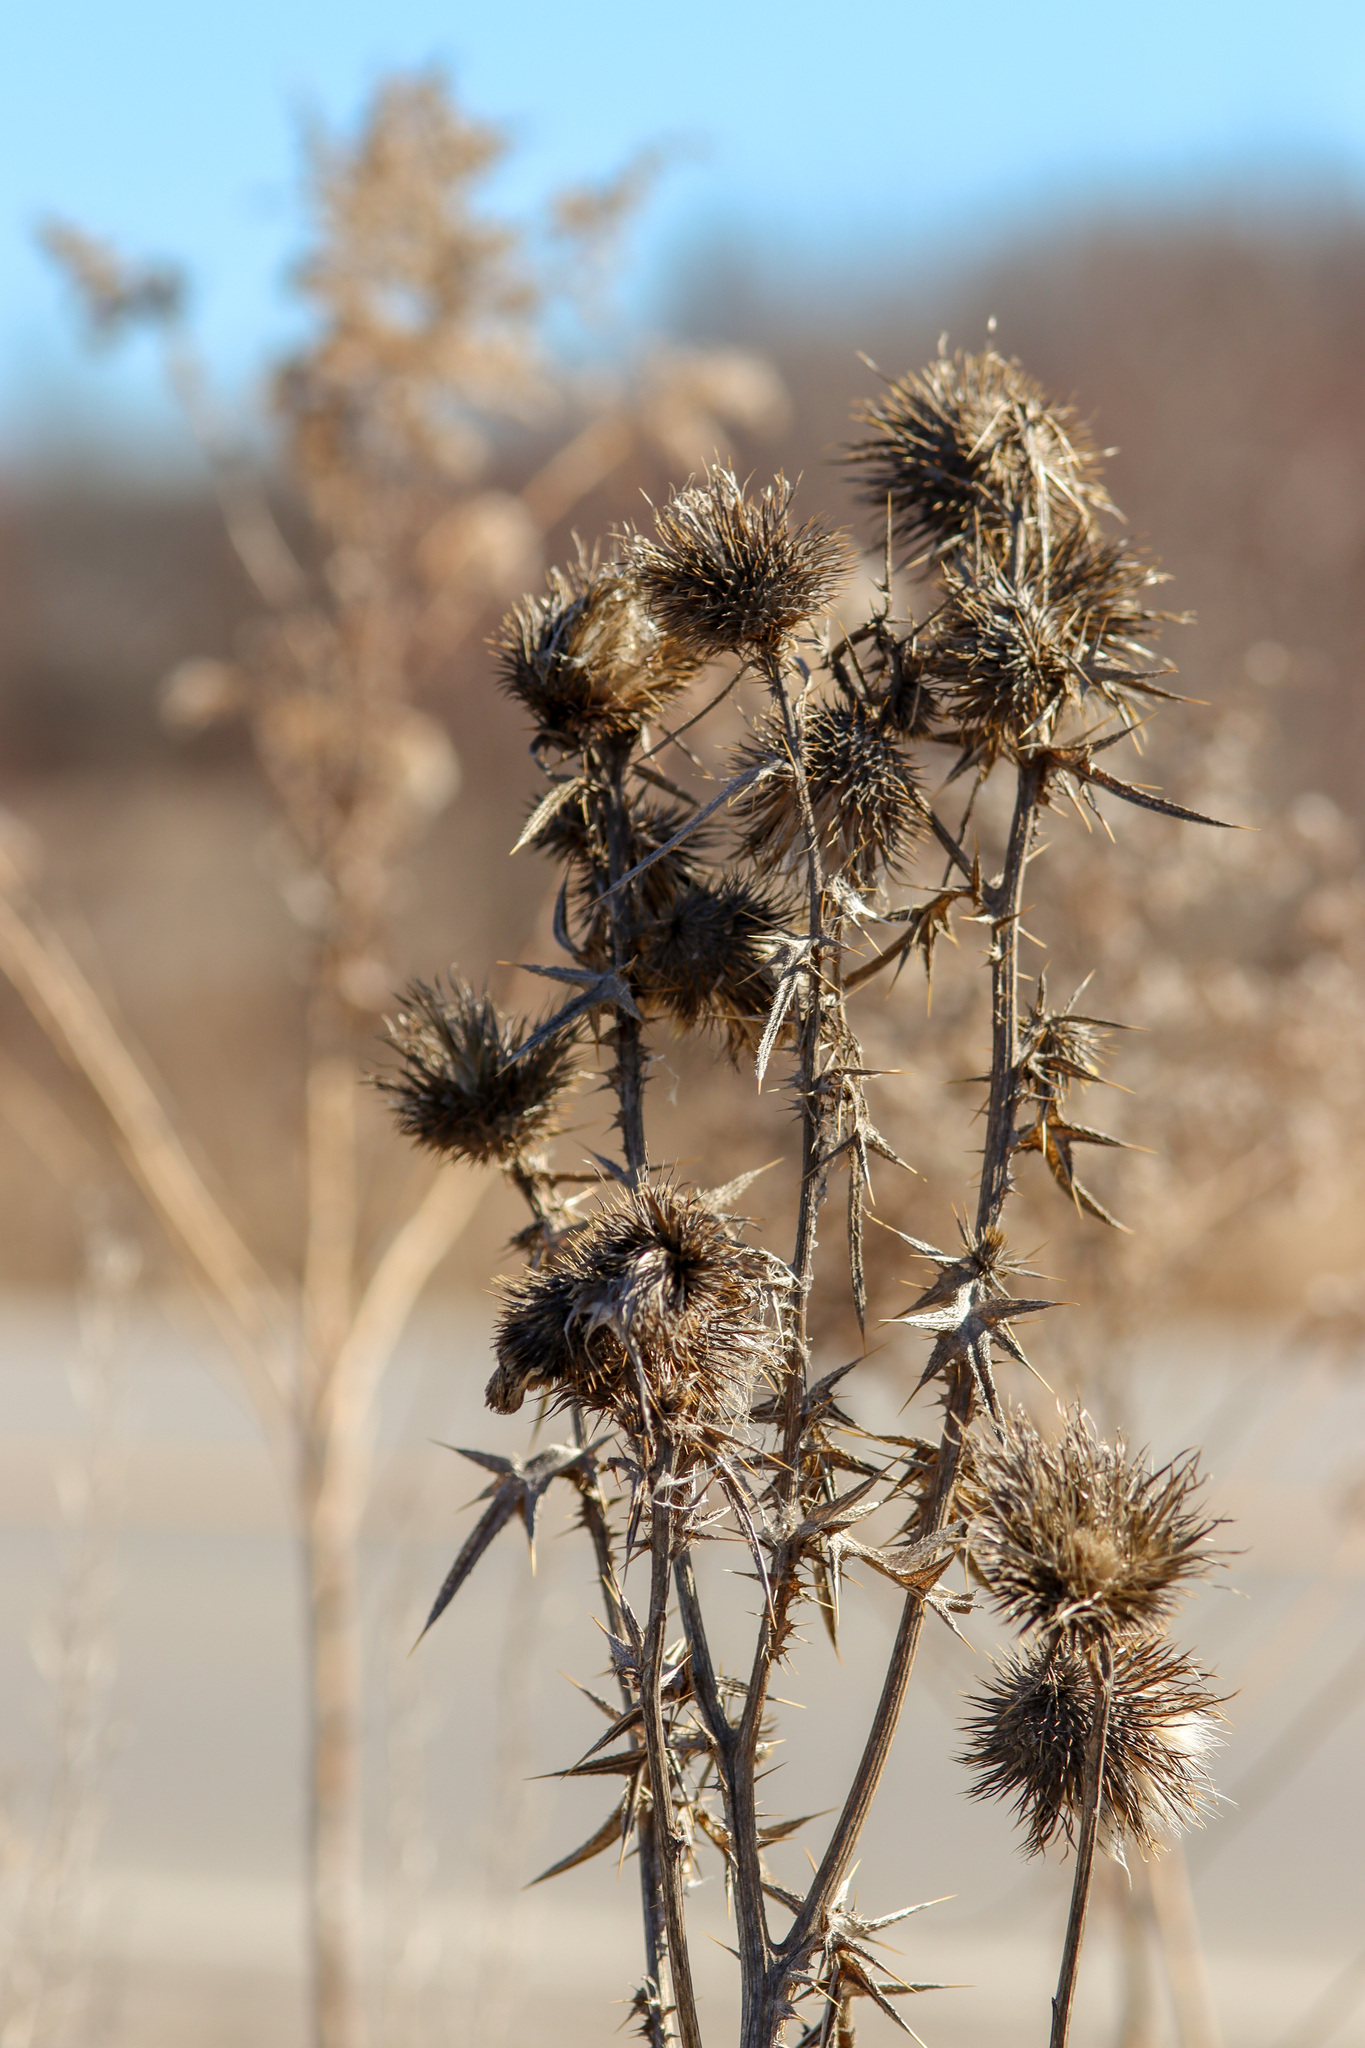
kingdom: Plantae
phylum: Tracheophyta
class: Magnoliopsida
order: Asterales
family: Asteraceae
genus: Cirsium
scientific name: Cirsium vulgare
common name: Bull thistle
